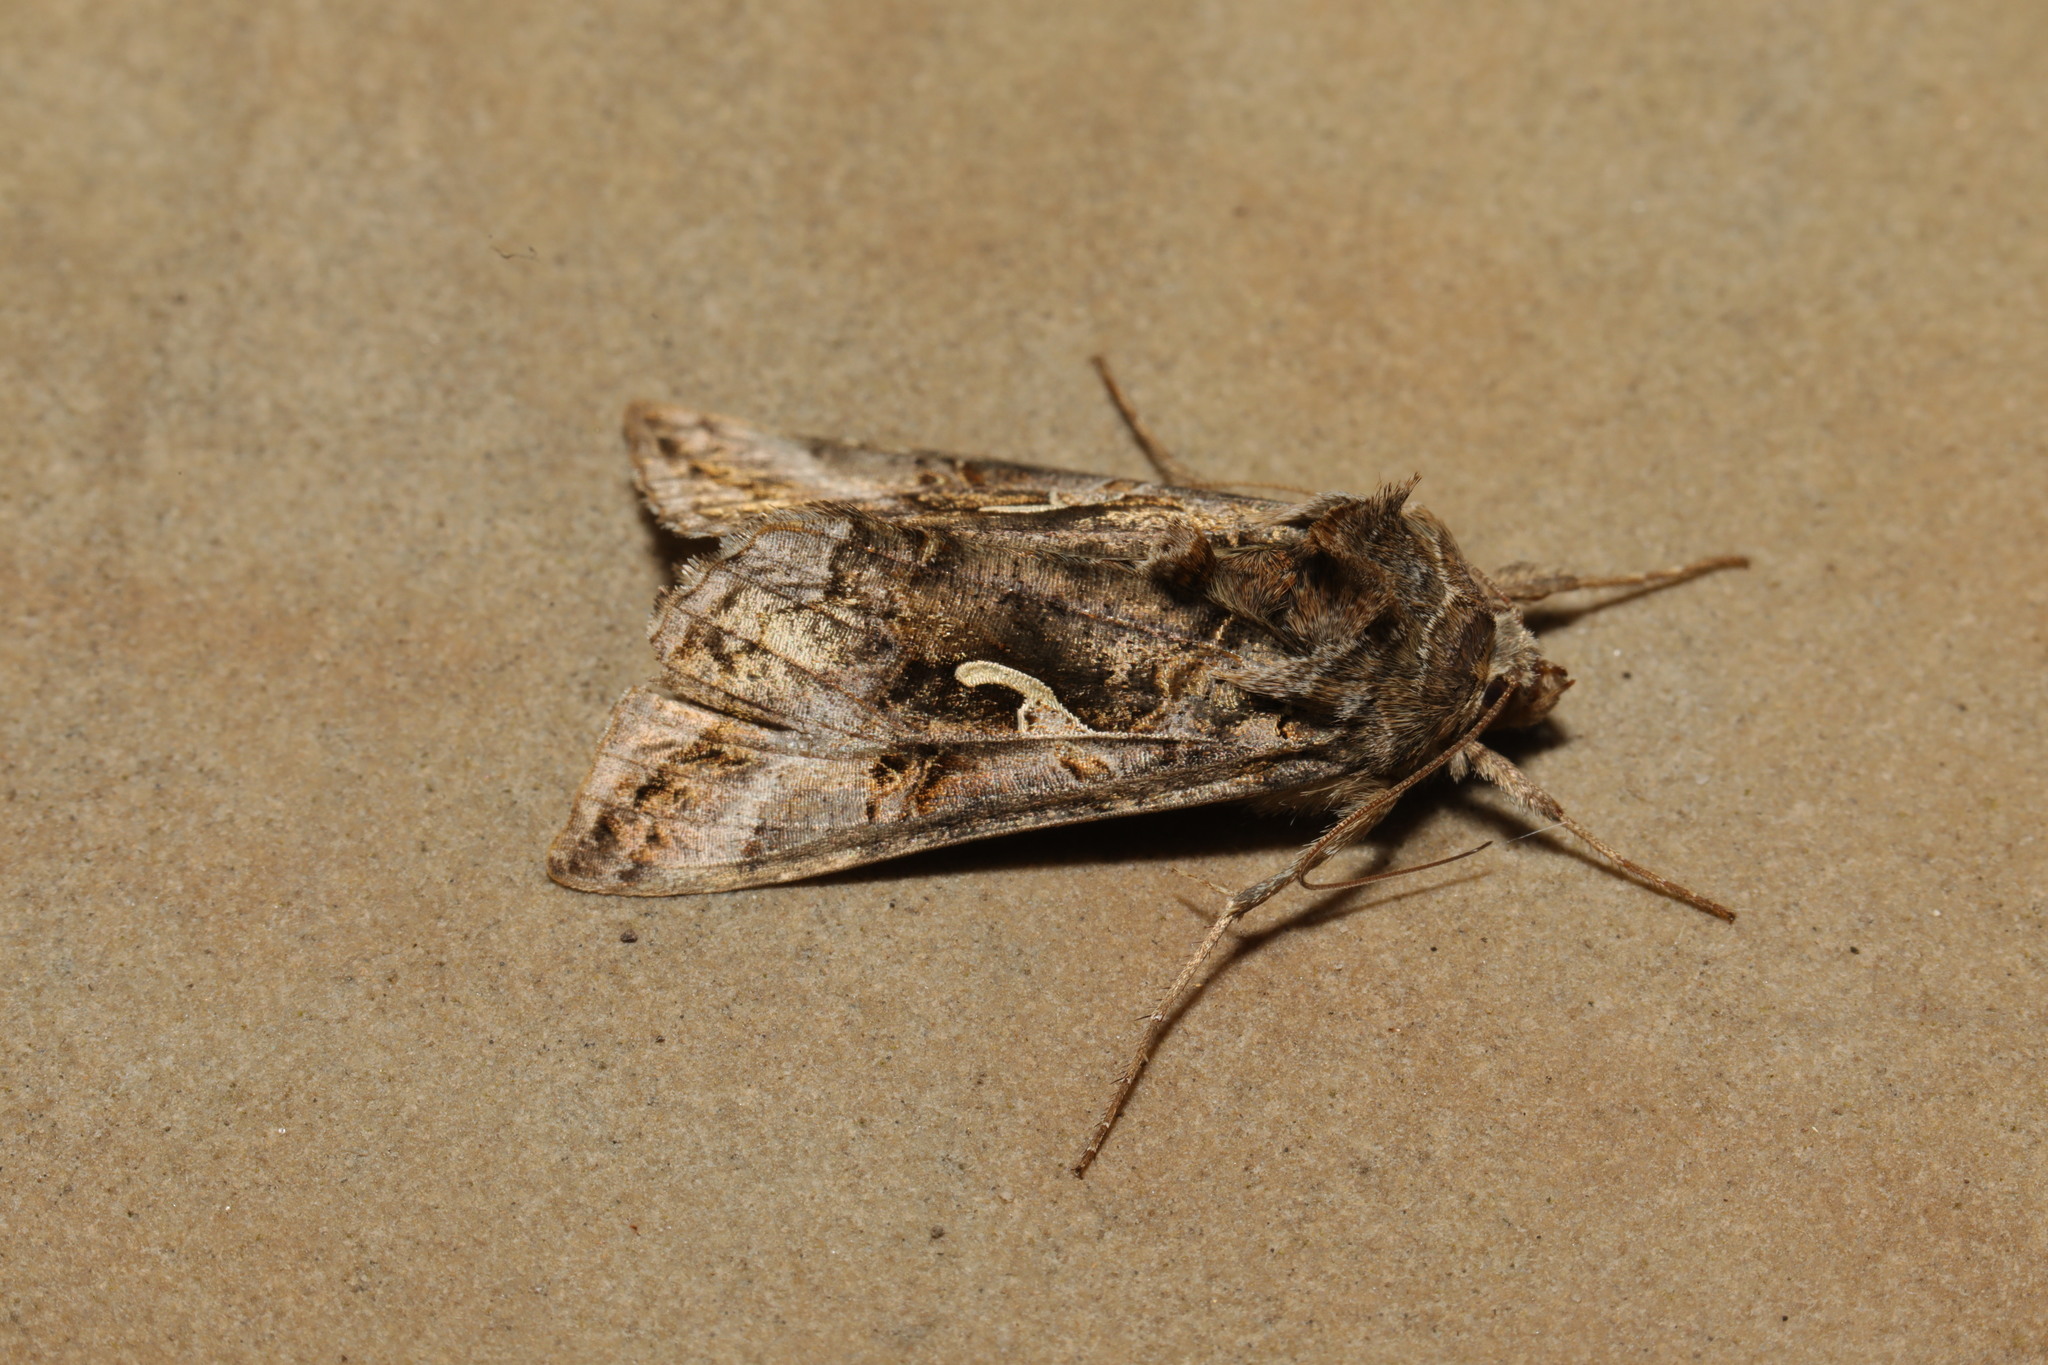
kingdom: Animalia
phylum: Arthropoda
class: Insecta
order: Lepidoptera
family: Noctuidae
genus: Autographa
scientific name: Autographa gamma
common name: Silver y
